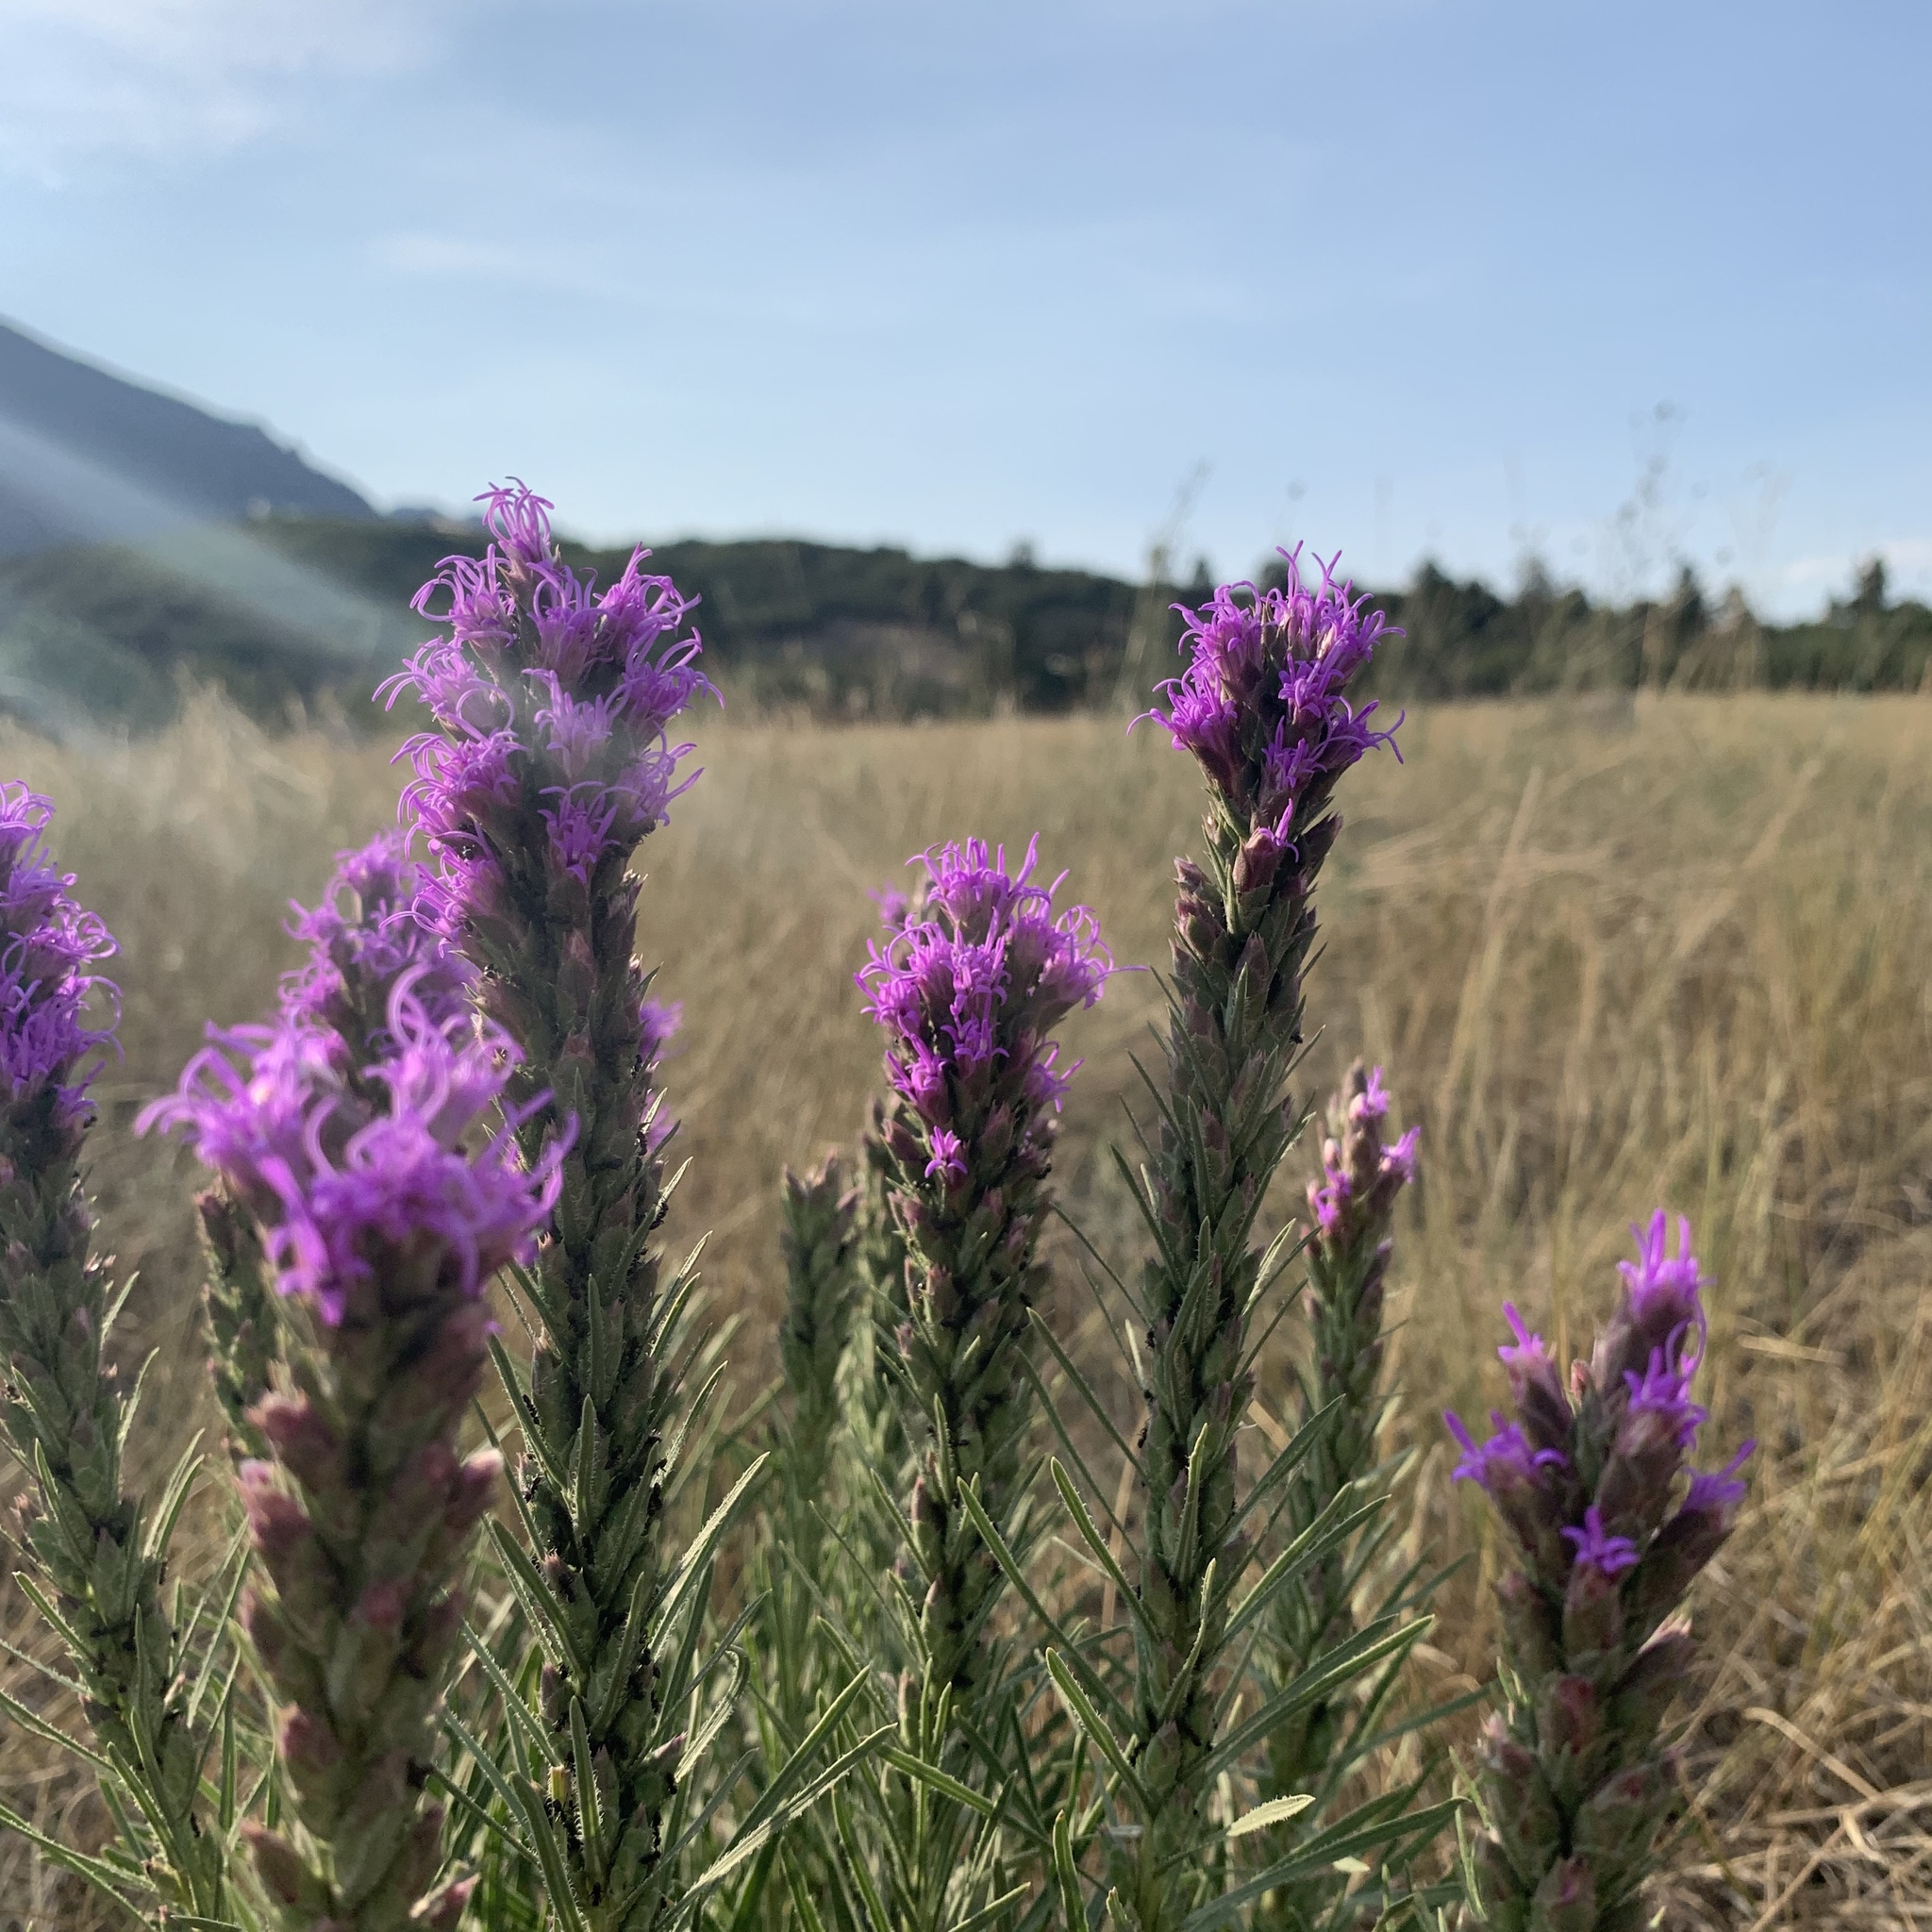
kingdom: Plantae
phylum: Tracheophyta
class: Magnoliopsida
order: Asterales
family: Asteraceae
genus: Liatris
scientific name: Liatris punctata
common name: Dotted gayfeather
